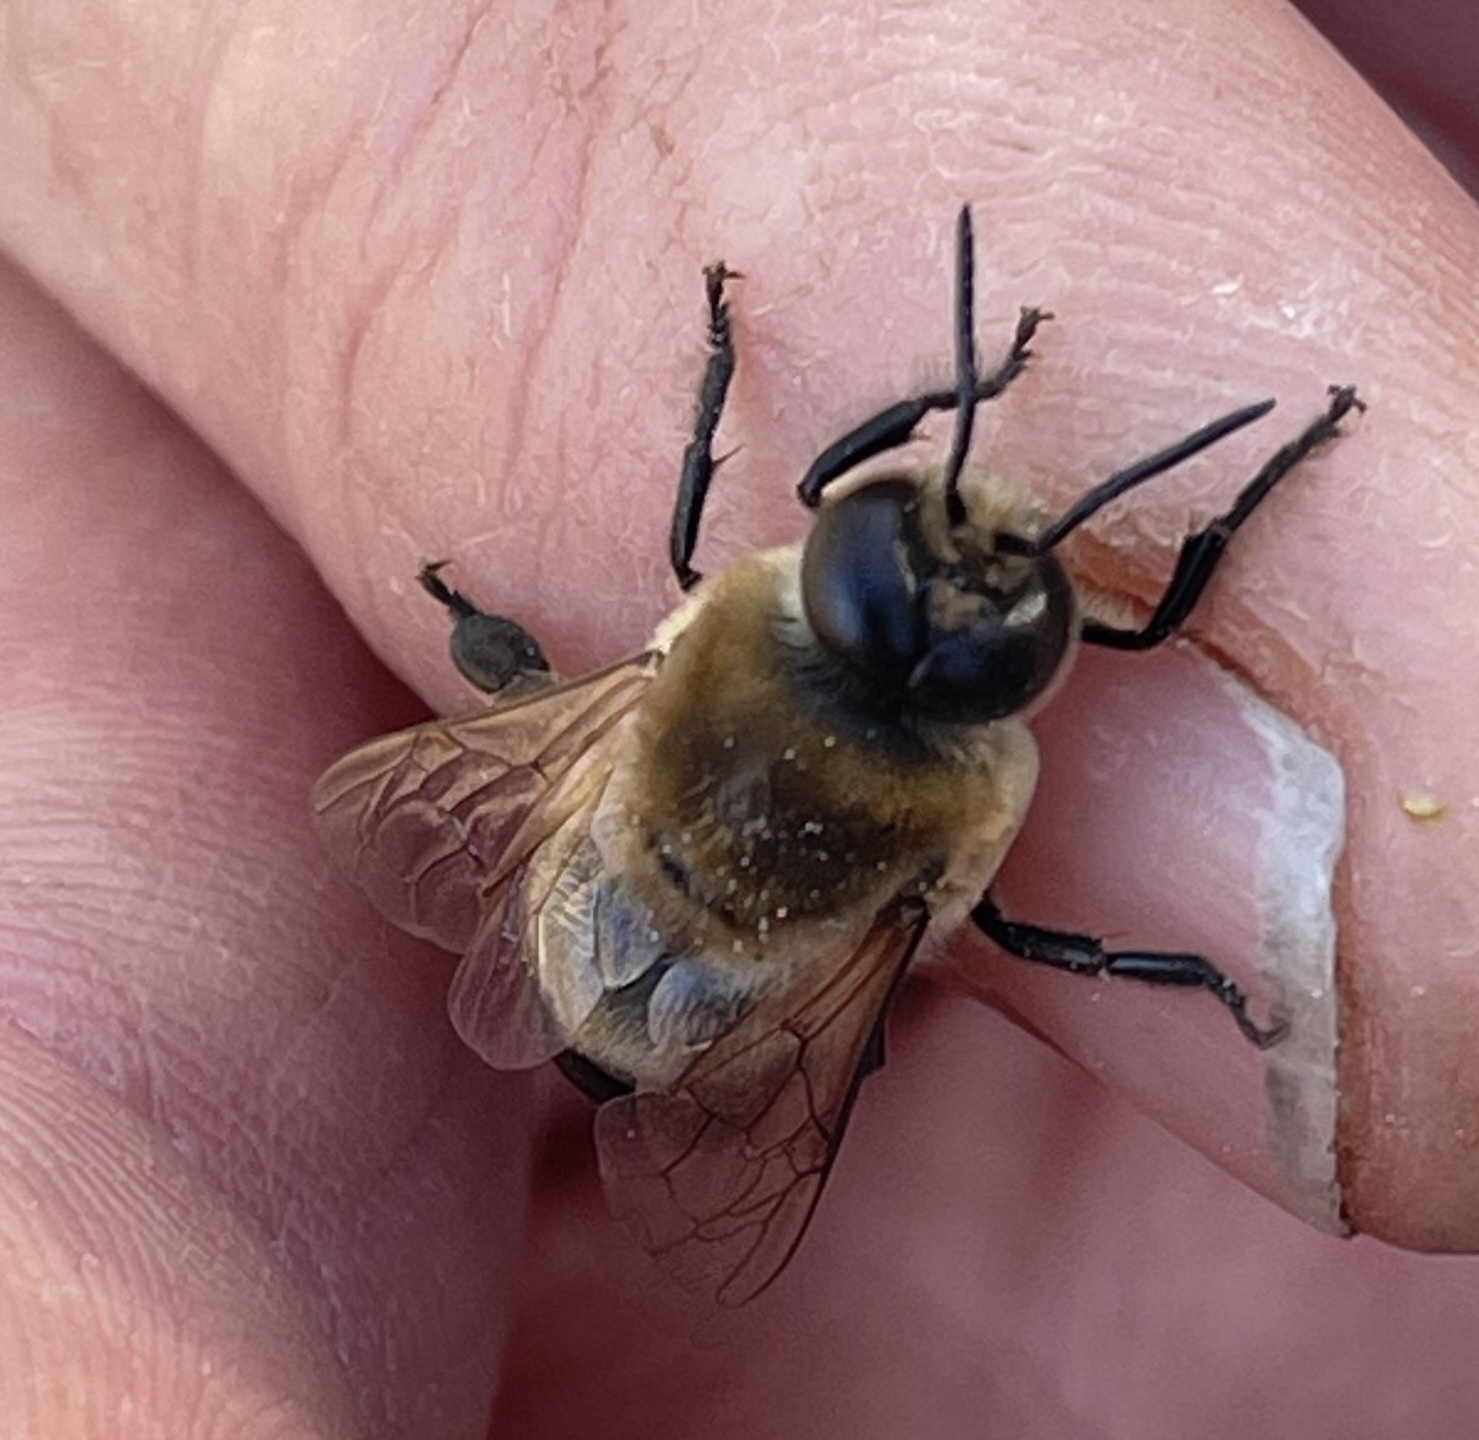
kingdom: Animalia
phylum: Arthropoda
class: Insecta
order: Hymenoptera
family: Apidae
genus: Apis
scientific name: Apis mellifera
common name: Honey bee
